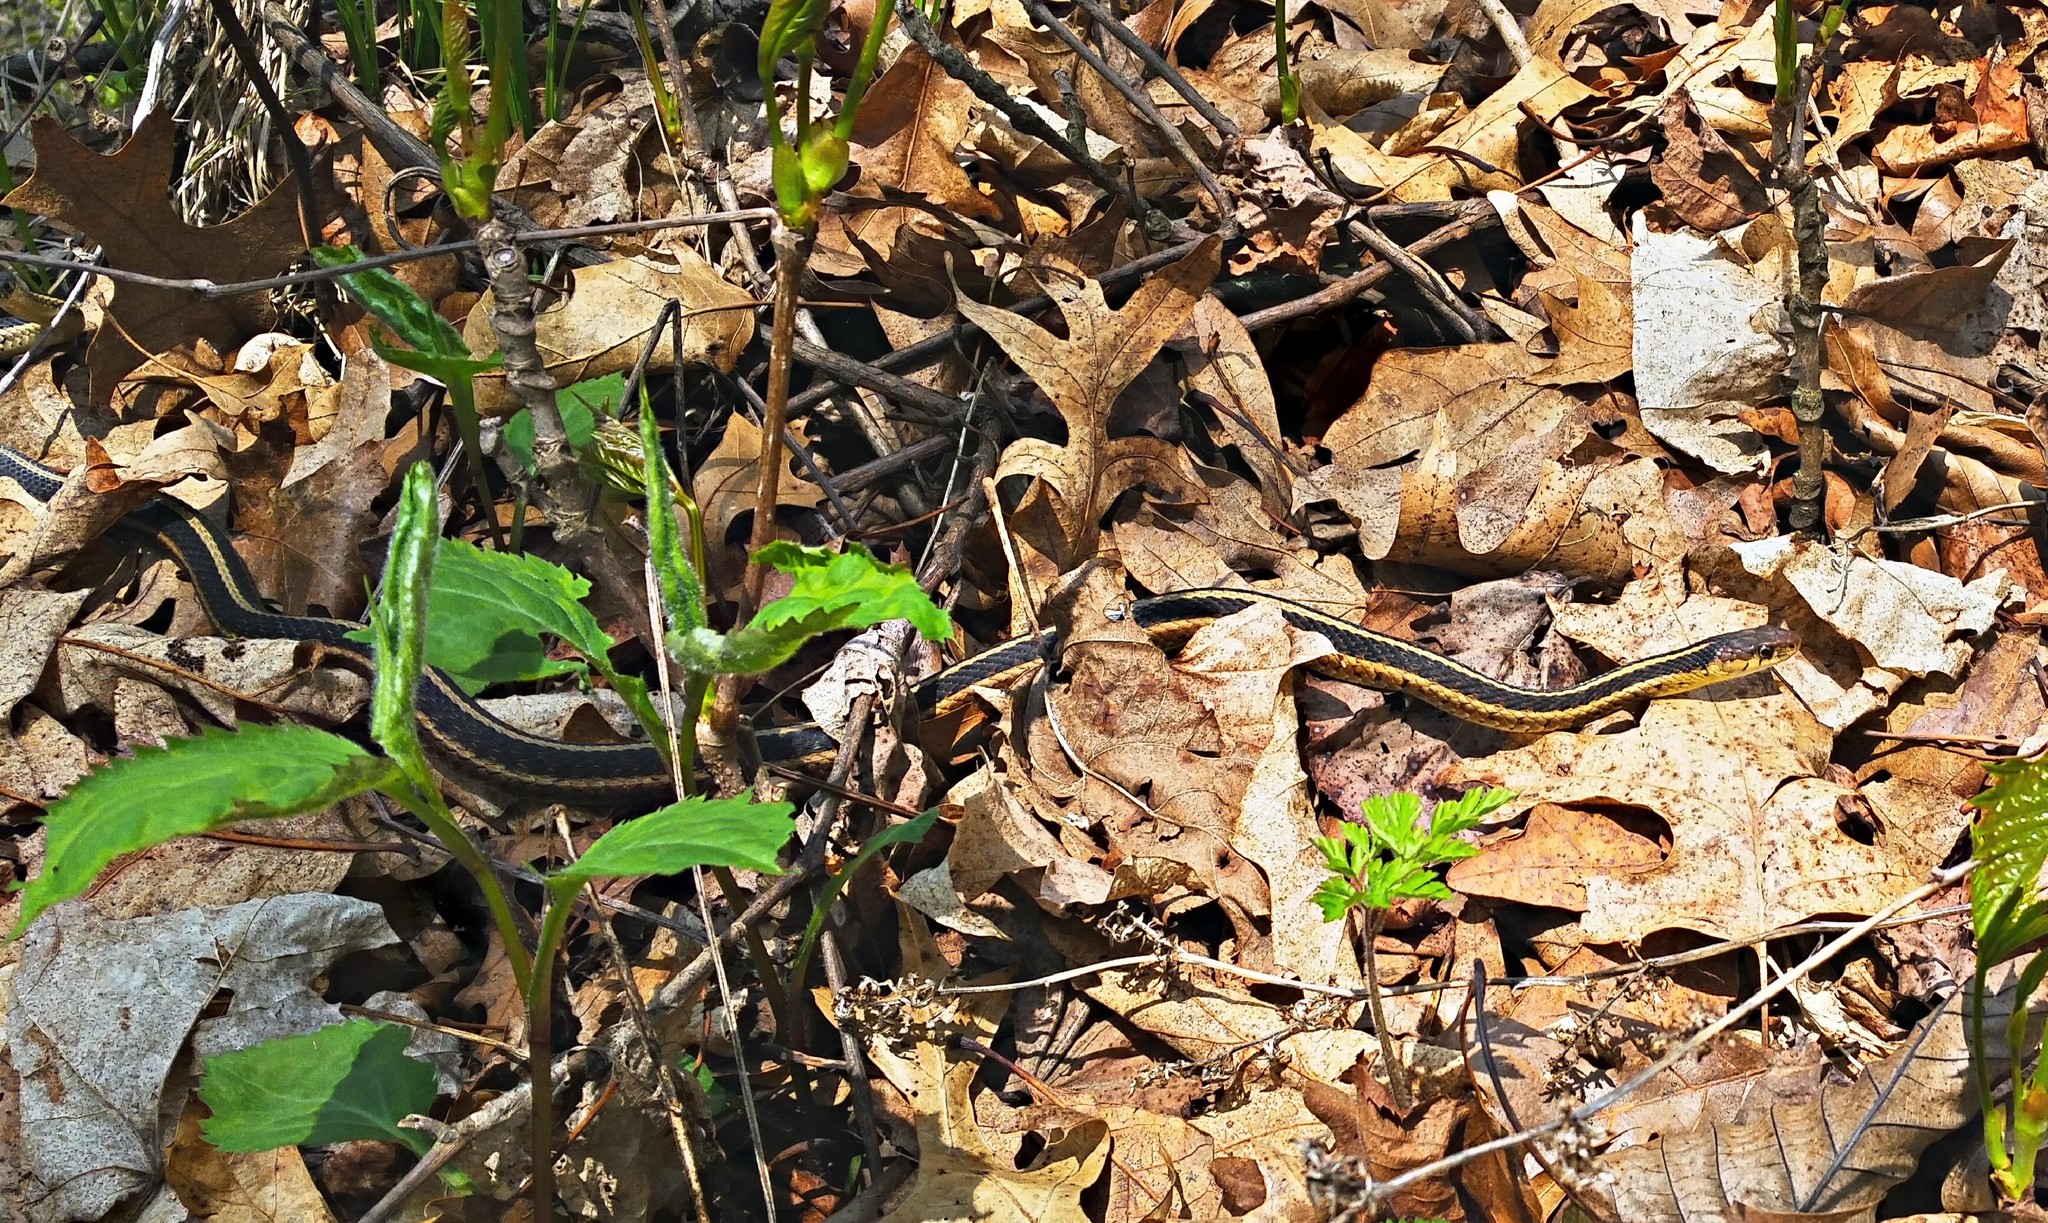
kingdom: Animalia
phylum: Chordata
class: Squamata
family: Colubridae
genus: Thamnophis
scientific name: Thamnophis sirtalis
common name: Common garter snake
